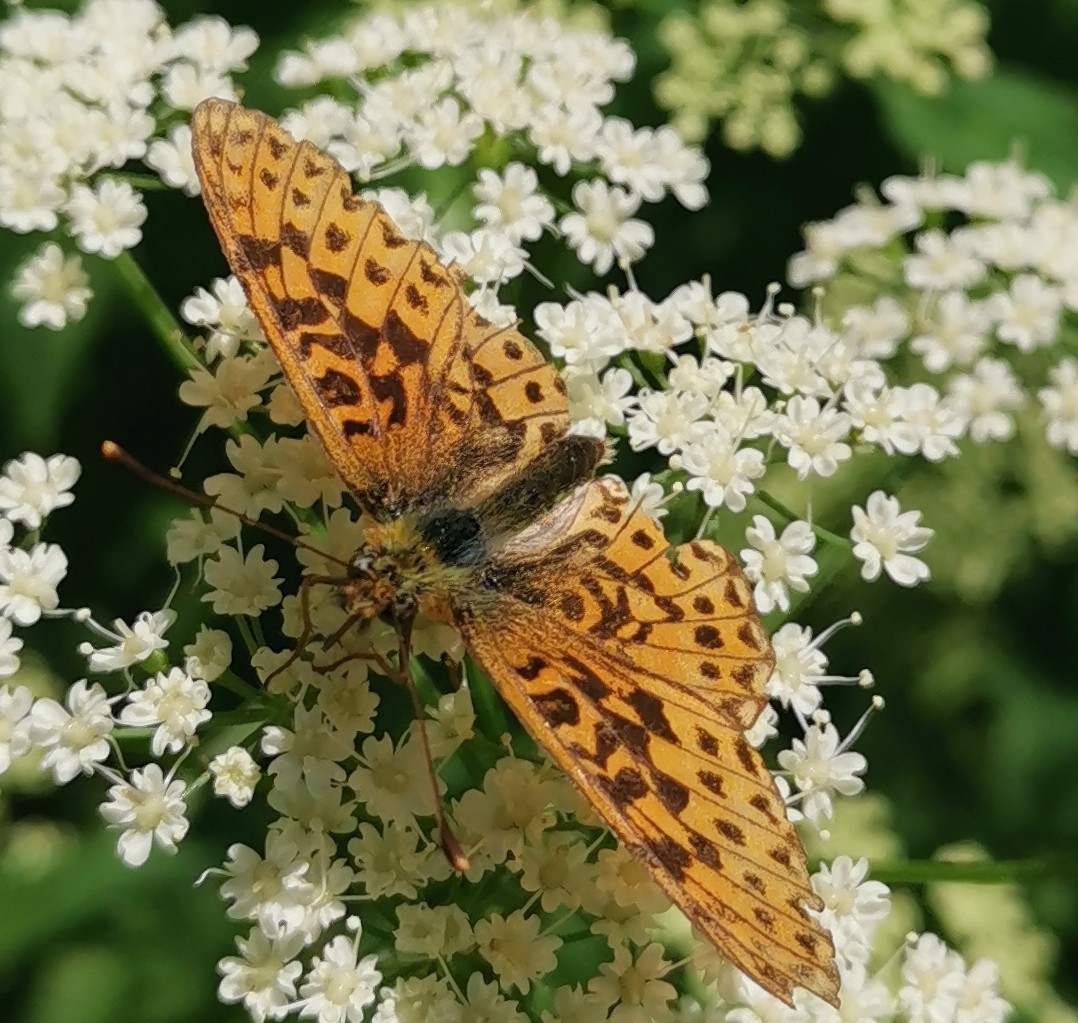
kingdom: Animalia
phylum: Arthropoda
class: Insecta
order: Lepidoptera
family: Nymphalidae
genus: Clossiana
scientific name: Clossiana euphrosyne
